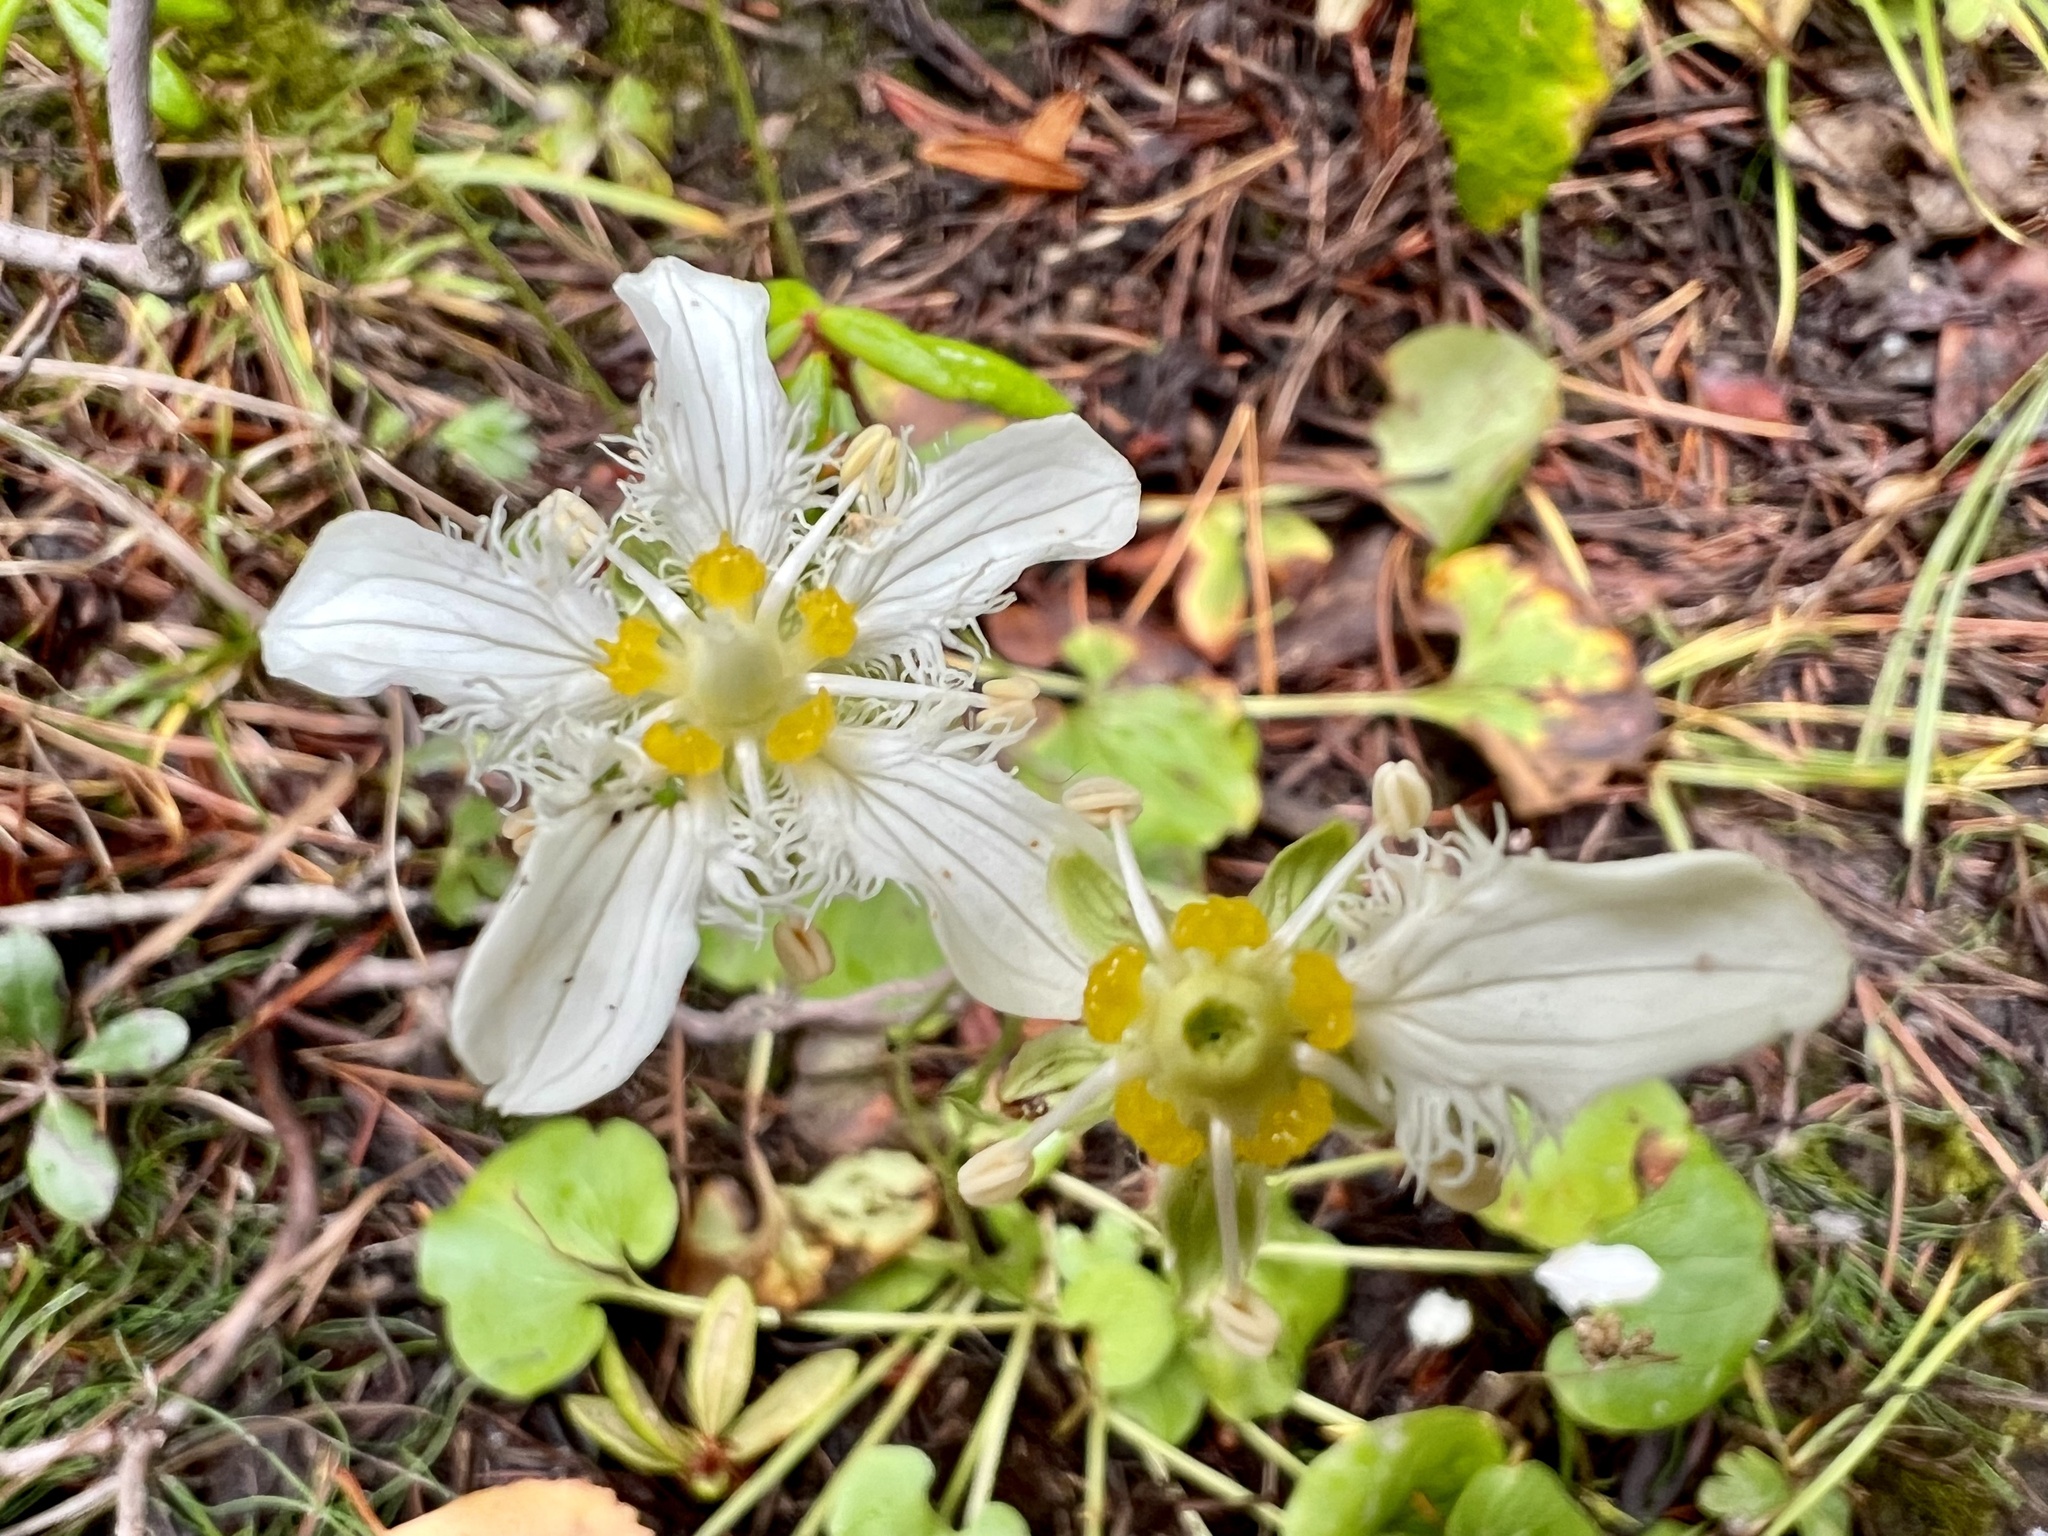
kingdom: Plantae
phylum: Tracheophyta
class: Magnoliopsida
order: Celastrales
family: Parnassiaceae
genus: Parnassia
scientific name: Parnassia fimbriata
